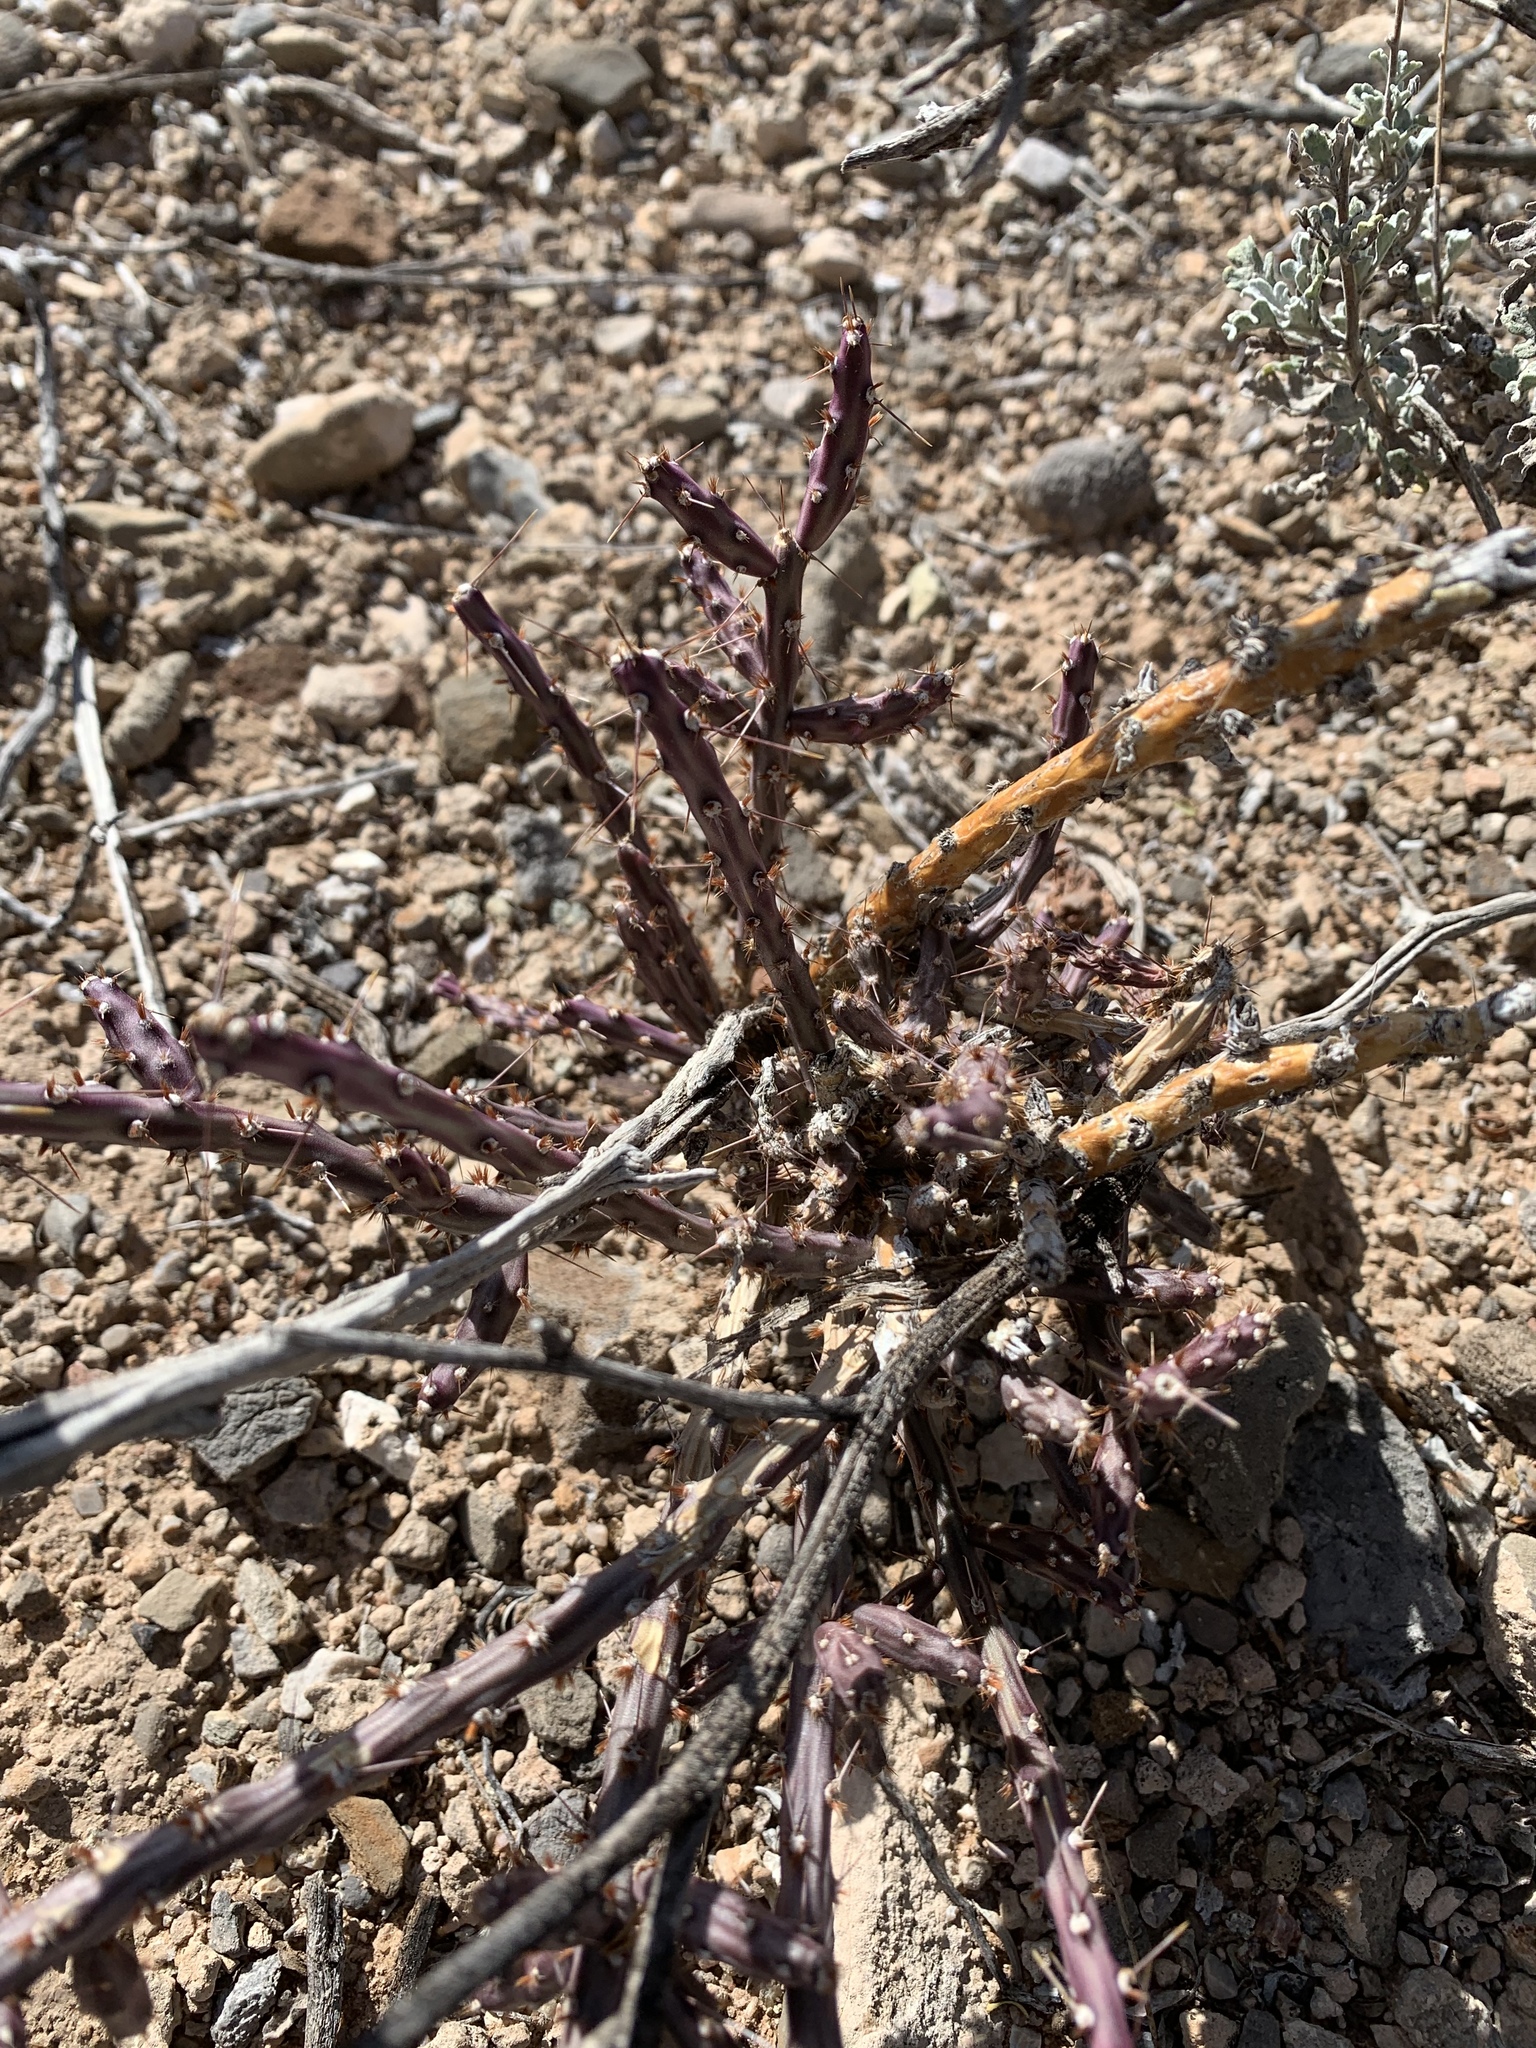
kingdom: Plantae
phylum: Tracheophyta
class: Magnoliopsida
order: Caryophyllales
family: Cactaceae
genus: Cylindropuntia
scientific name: Cylindropuntia leptocaulis
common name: Christmas cactus
